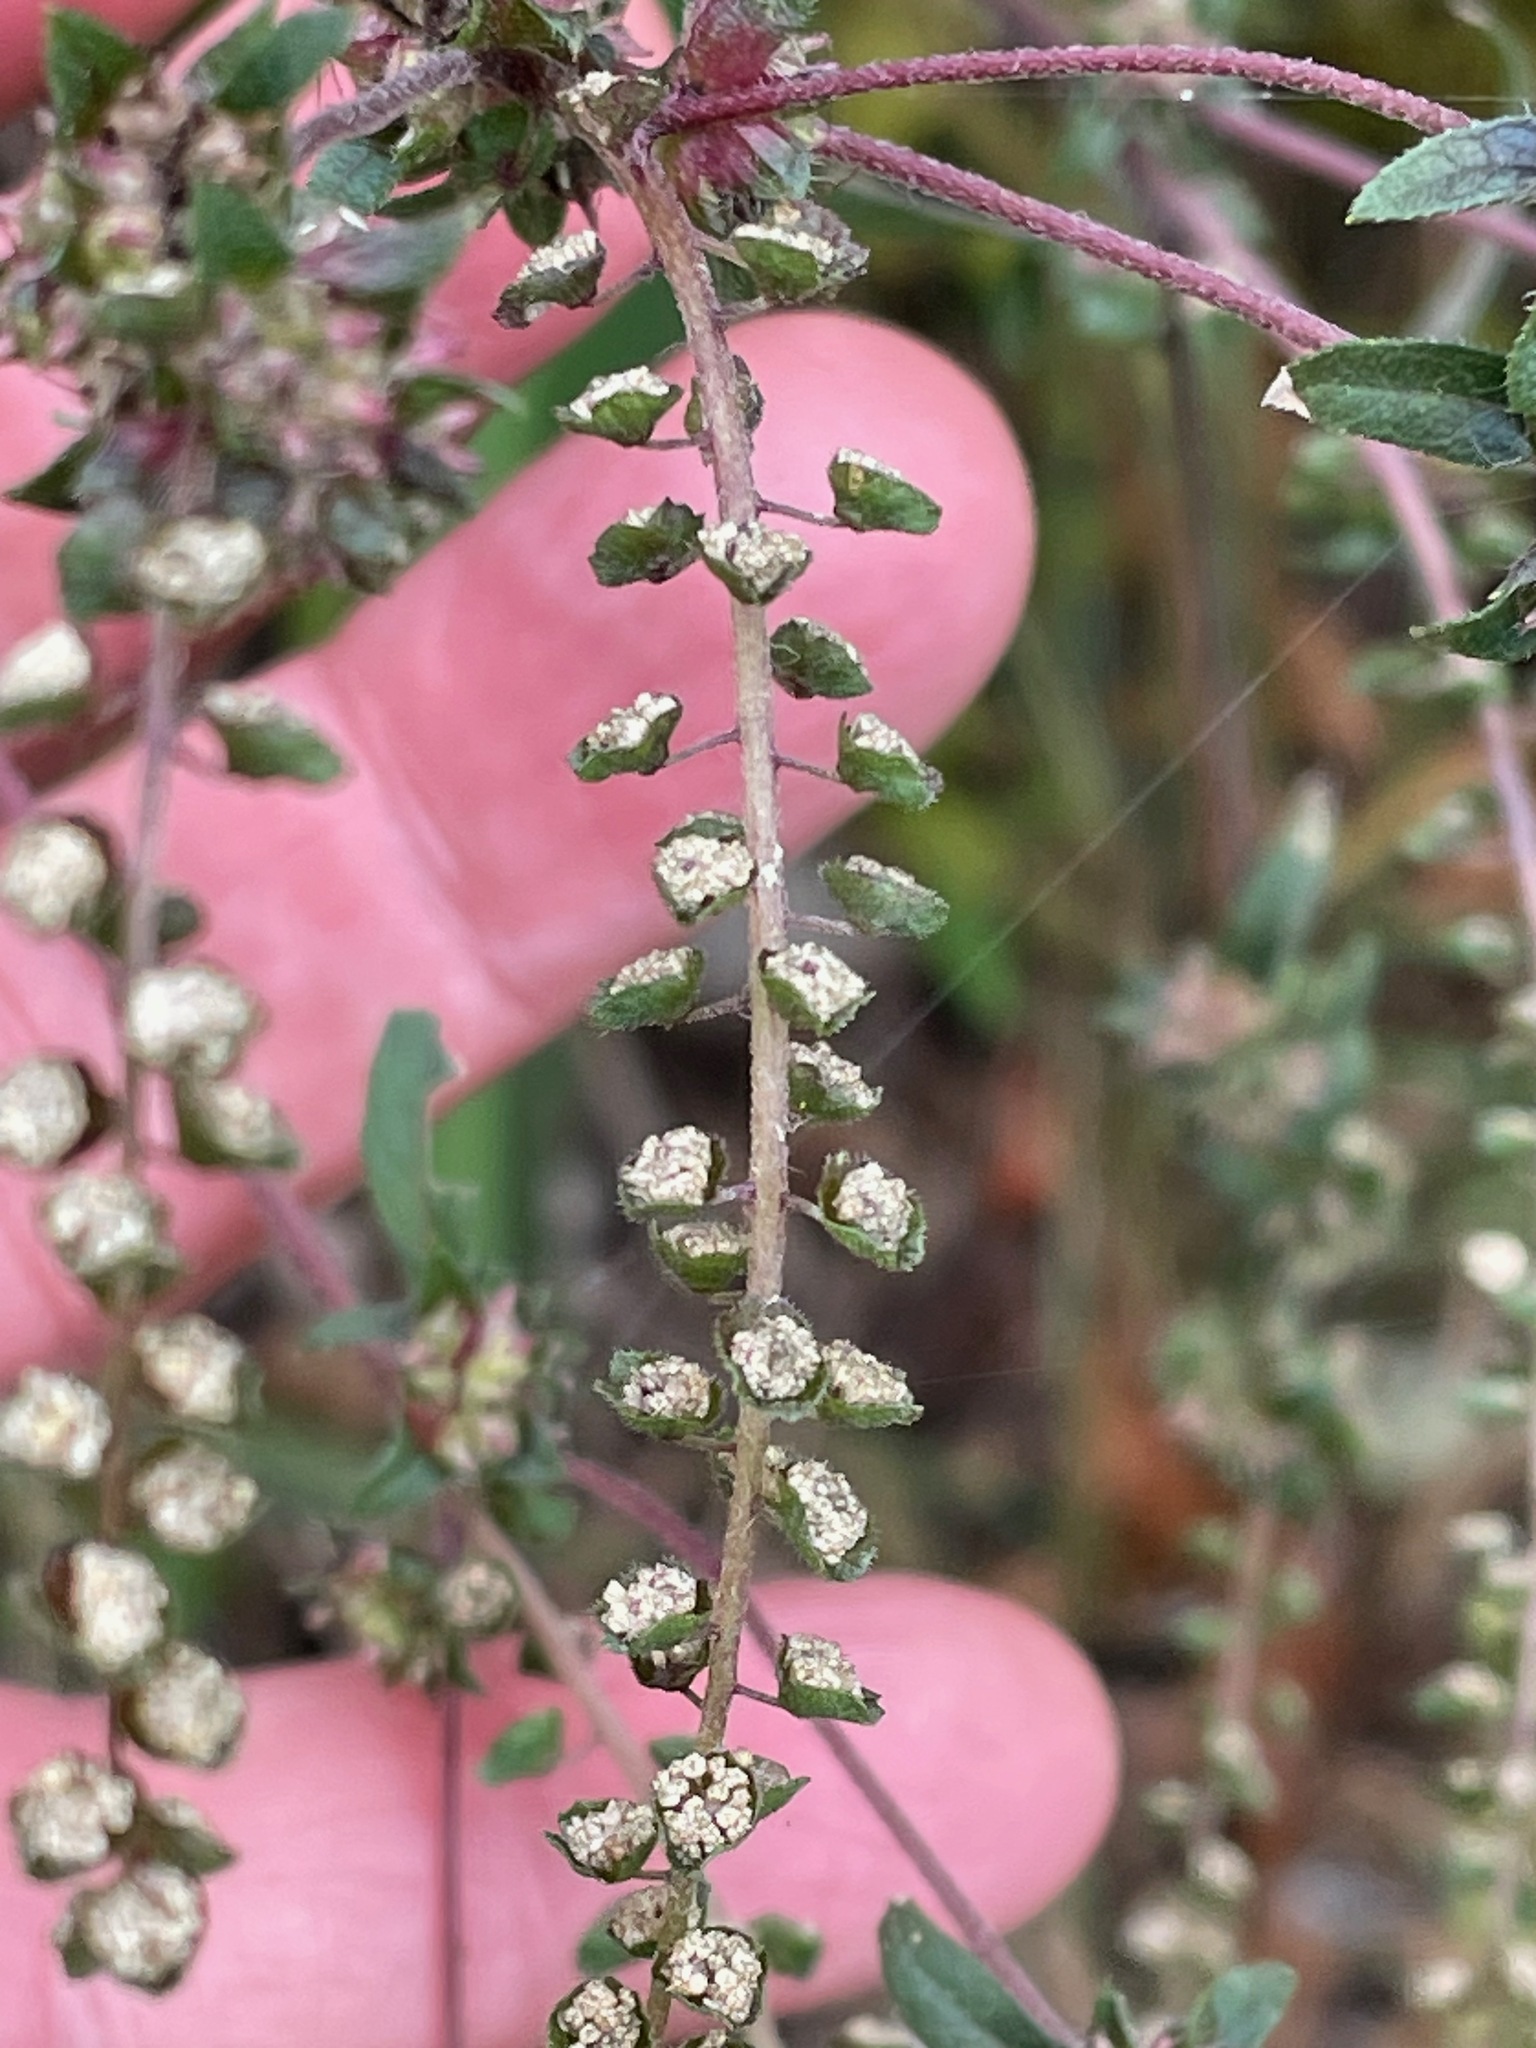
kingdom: Plantae
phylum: Tracheophyta
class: Magnoliopsida
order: Asterales
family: Asteraceae
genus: Ambrosia
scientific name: Ambrosia artemisiifolia
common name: Annual ragweed
